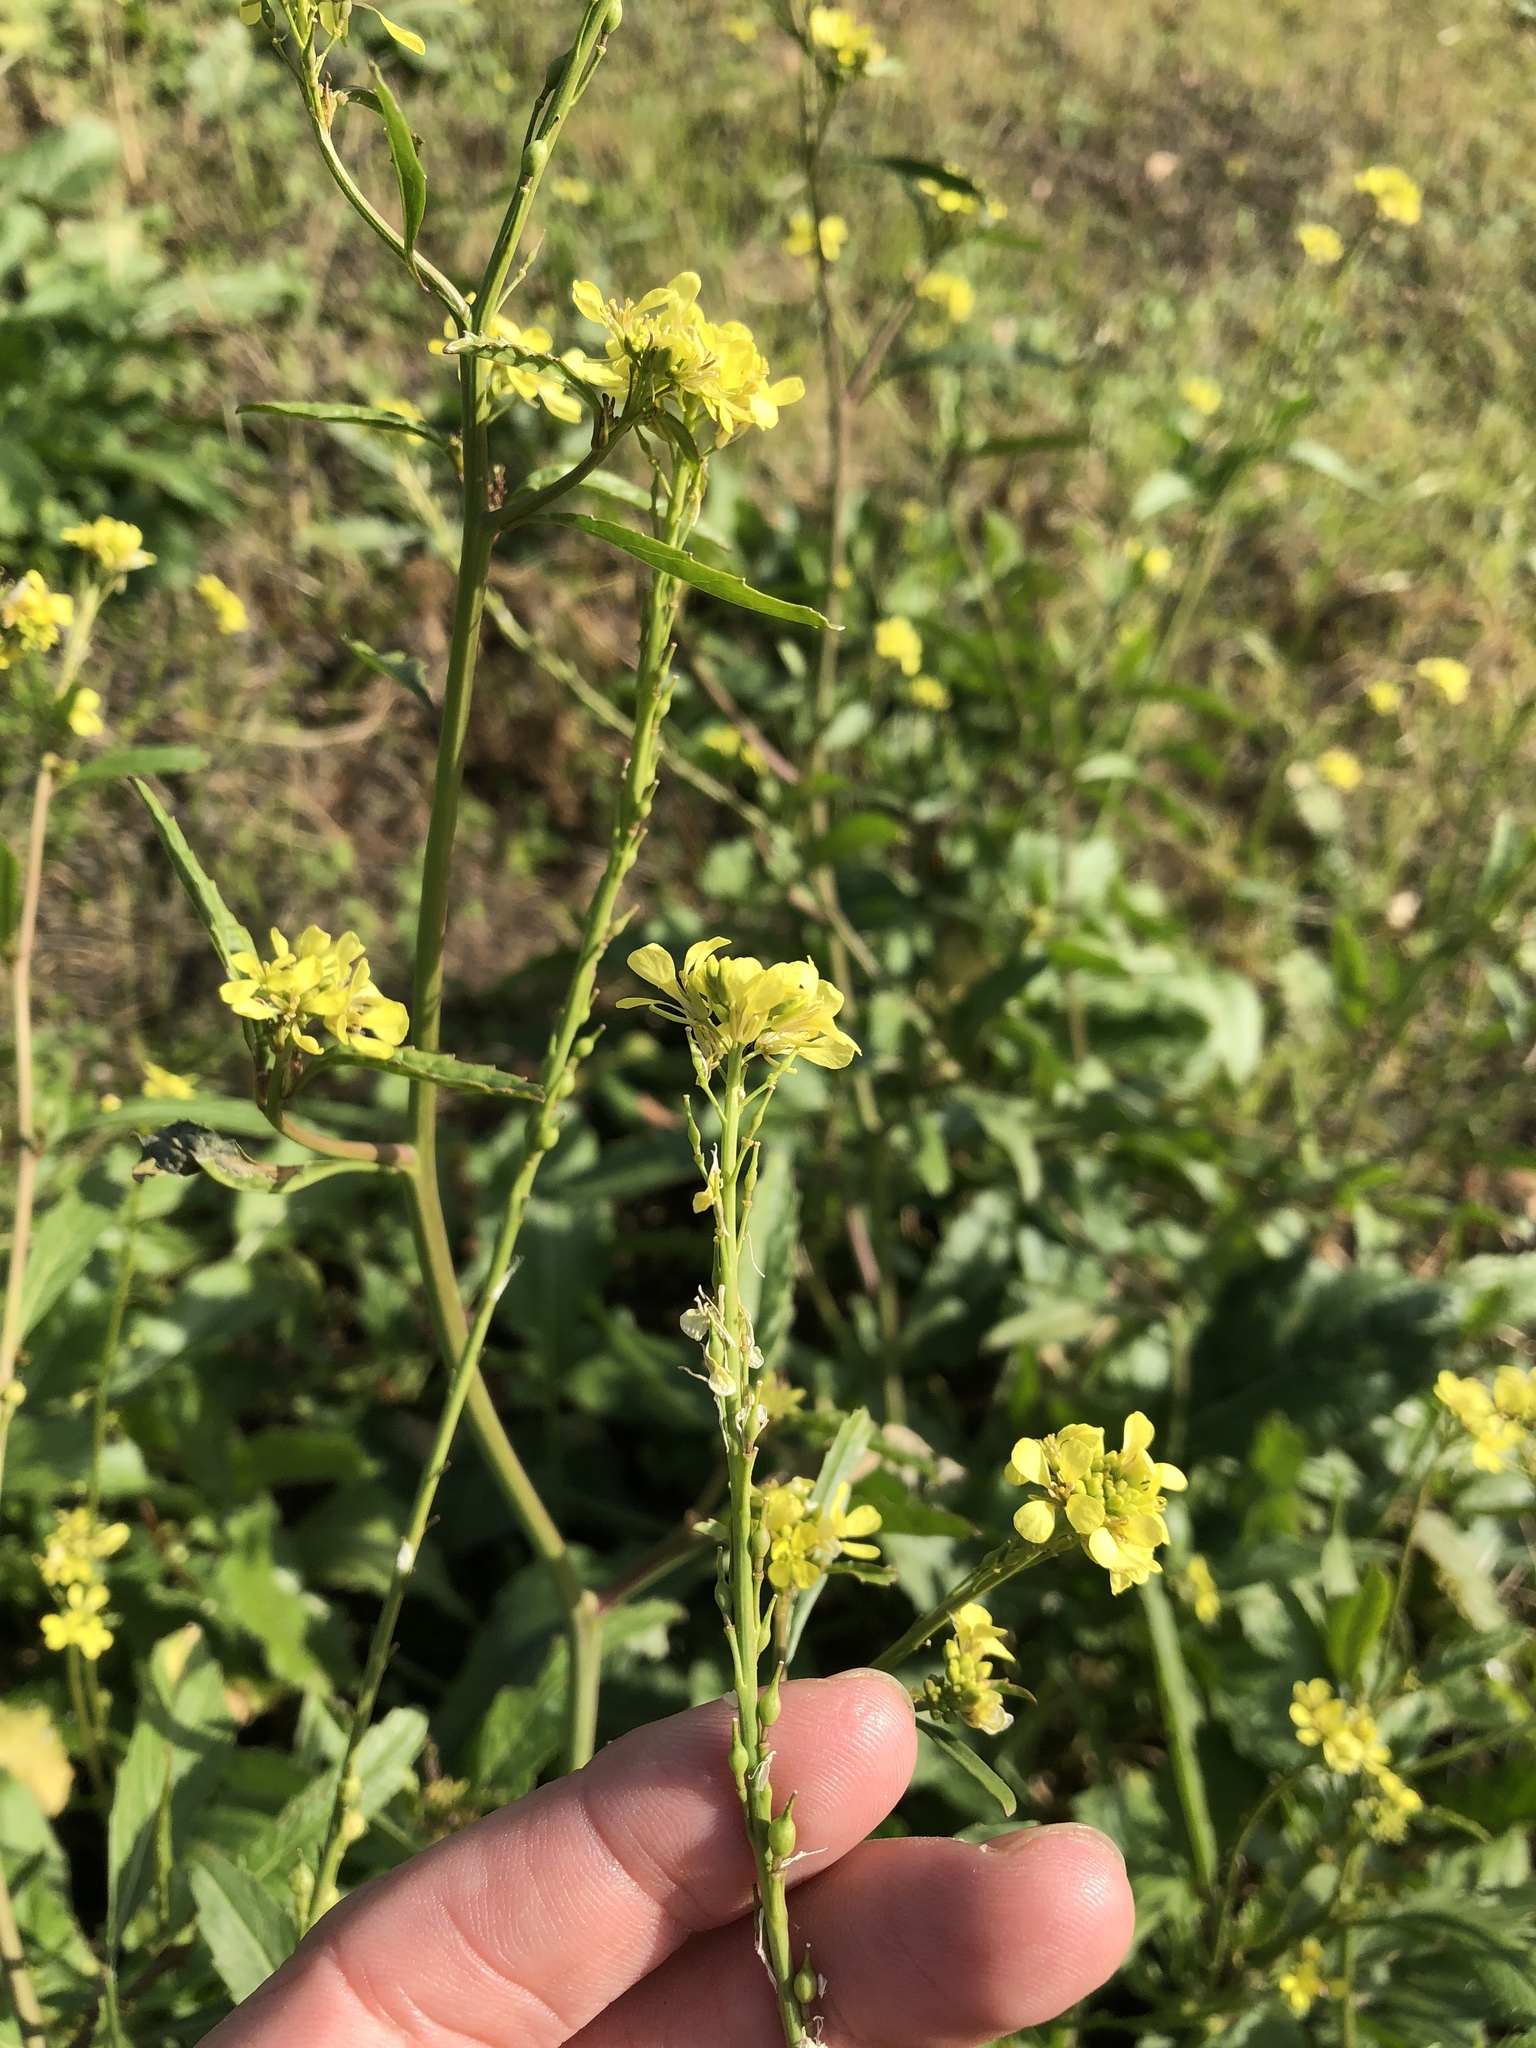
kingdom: Plantae
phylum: Tracheophyta
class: Magnoliopsida
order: Brassicales
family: Brassicaceae
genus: Rapistrum
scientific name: Rapistrum rugosum
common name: Annual bastardcabbage
